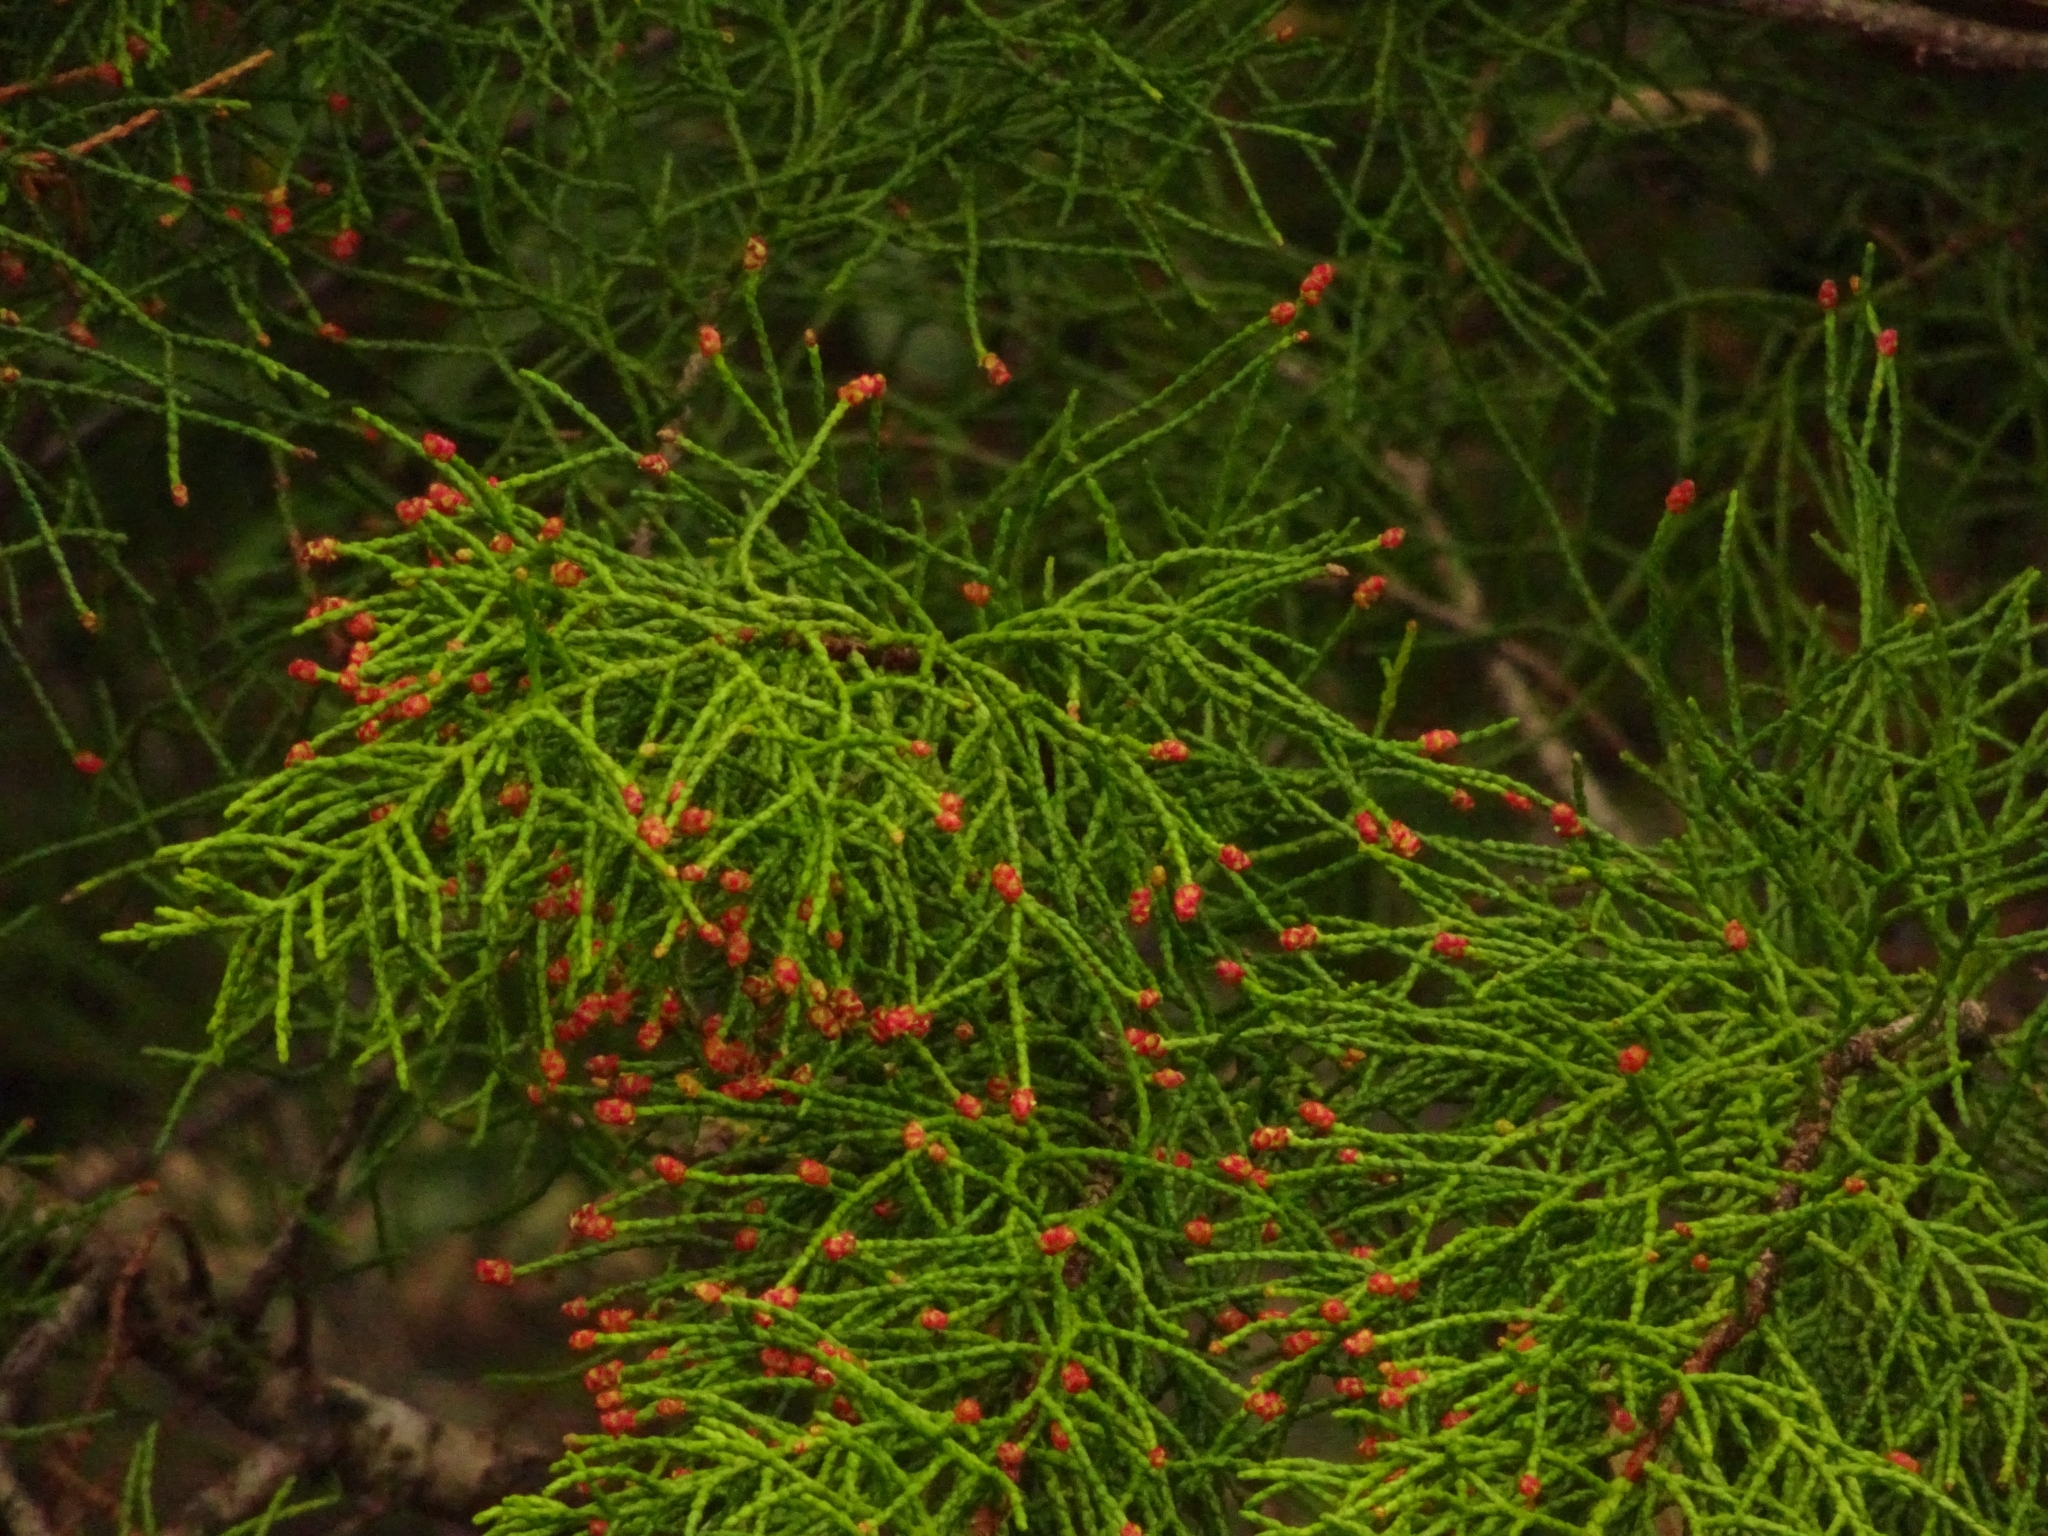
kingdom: Plantae
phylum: Tracheophyta
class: Pinopsida
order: Pinales
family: Podocarpaceae
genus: Lagarostrobos
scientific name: Lagarostrobos franklinii
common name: Huon pine
